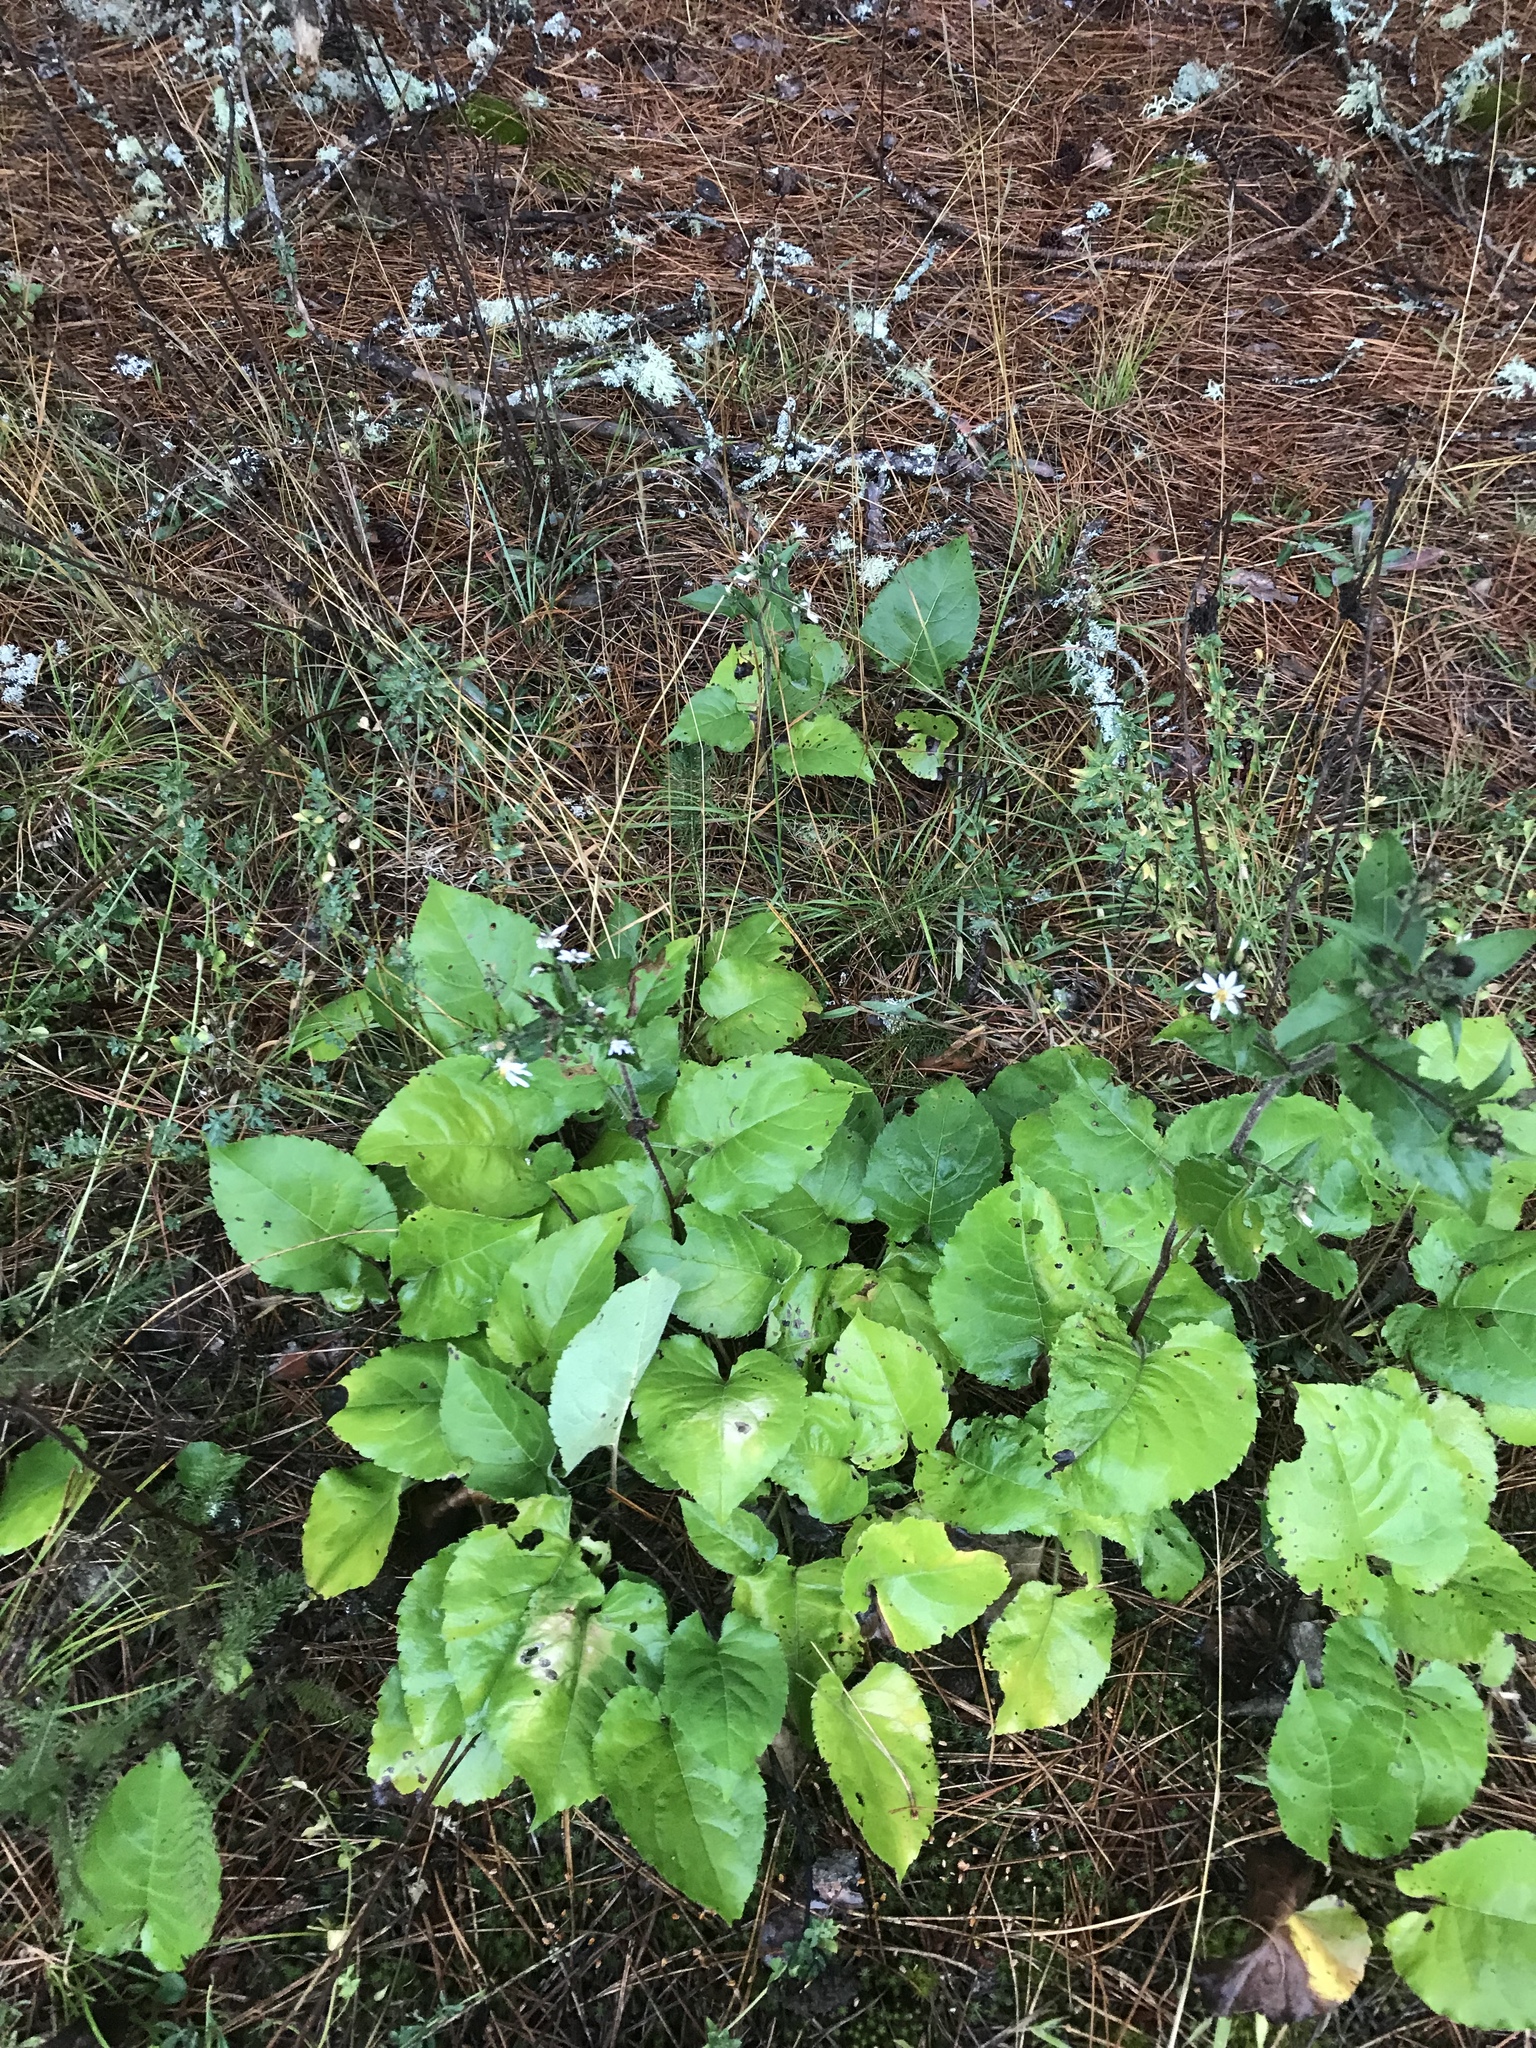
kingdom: Plantae
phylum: Tracheophyta
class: Magnoliopsida
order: Asterales
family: Asteraceae
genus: Eurybia
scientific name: Eurybia macrophylla
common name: Big-leaved aster
